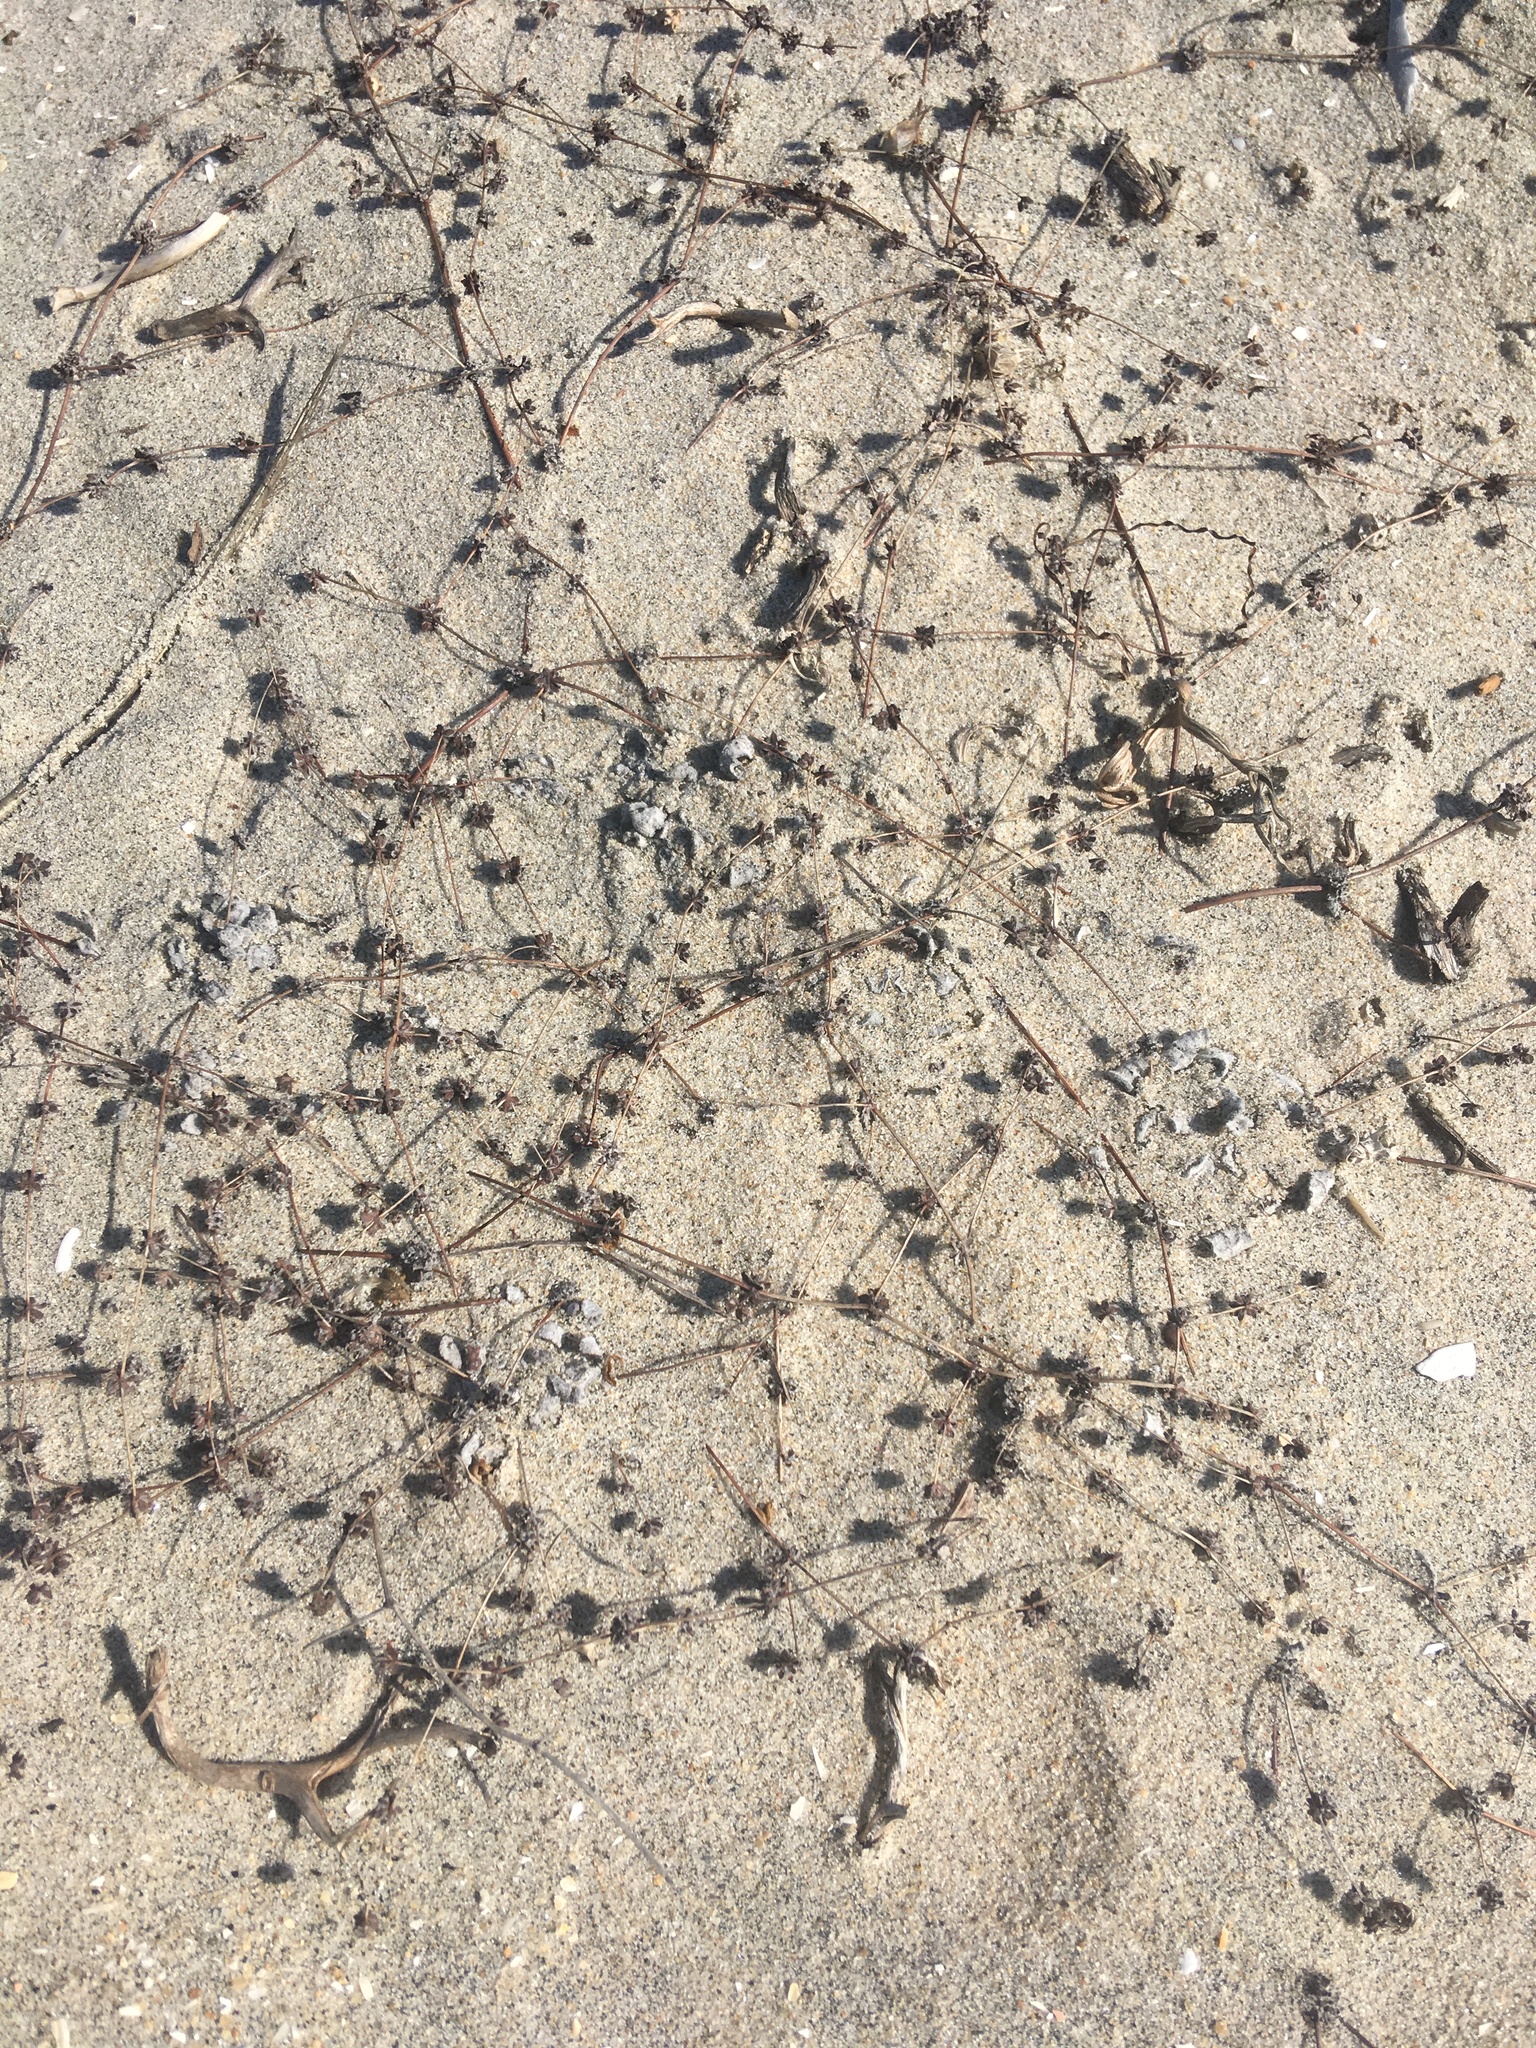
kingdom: Plantae
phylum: Tracheophyta
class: Magnoliopsida
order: Caryophyllales
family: Polygonaceae
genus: Nemacaulis
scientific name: Nemacaulis denudata
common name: Woolly-heads
